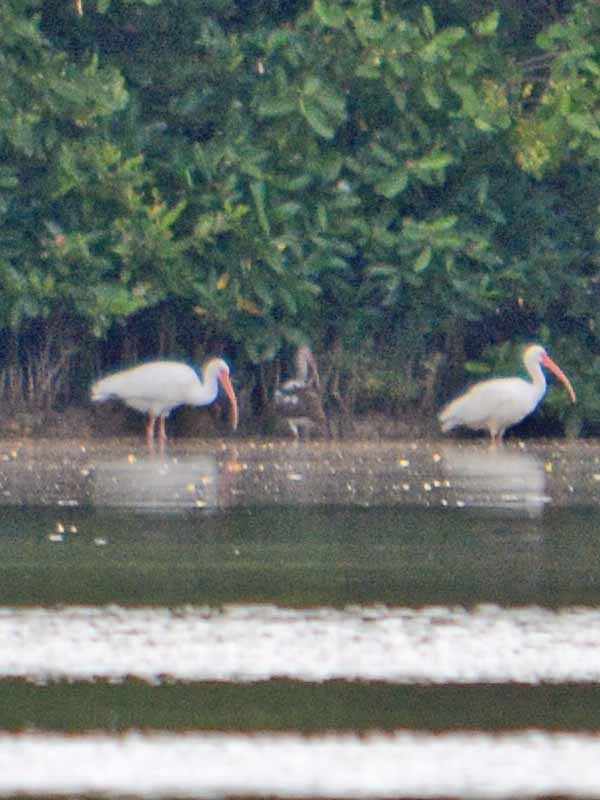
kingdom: Animalia
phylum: Chordata
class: Aves
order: Pelecaniformes
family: Threskiornithidae
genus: Eudocimus
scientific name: Eudocimus albus
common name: White ibis
